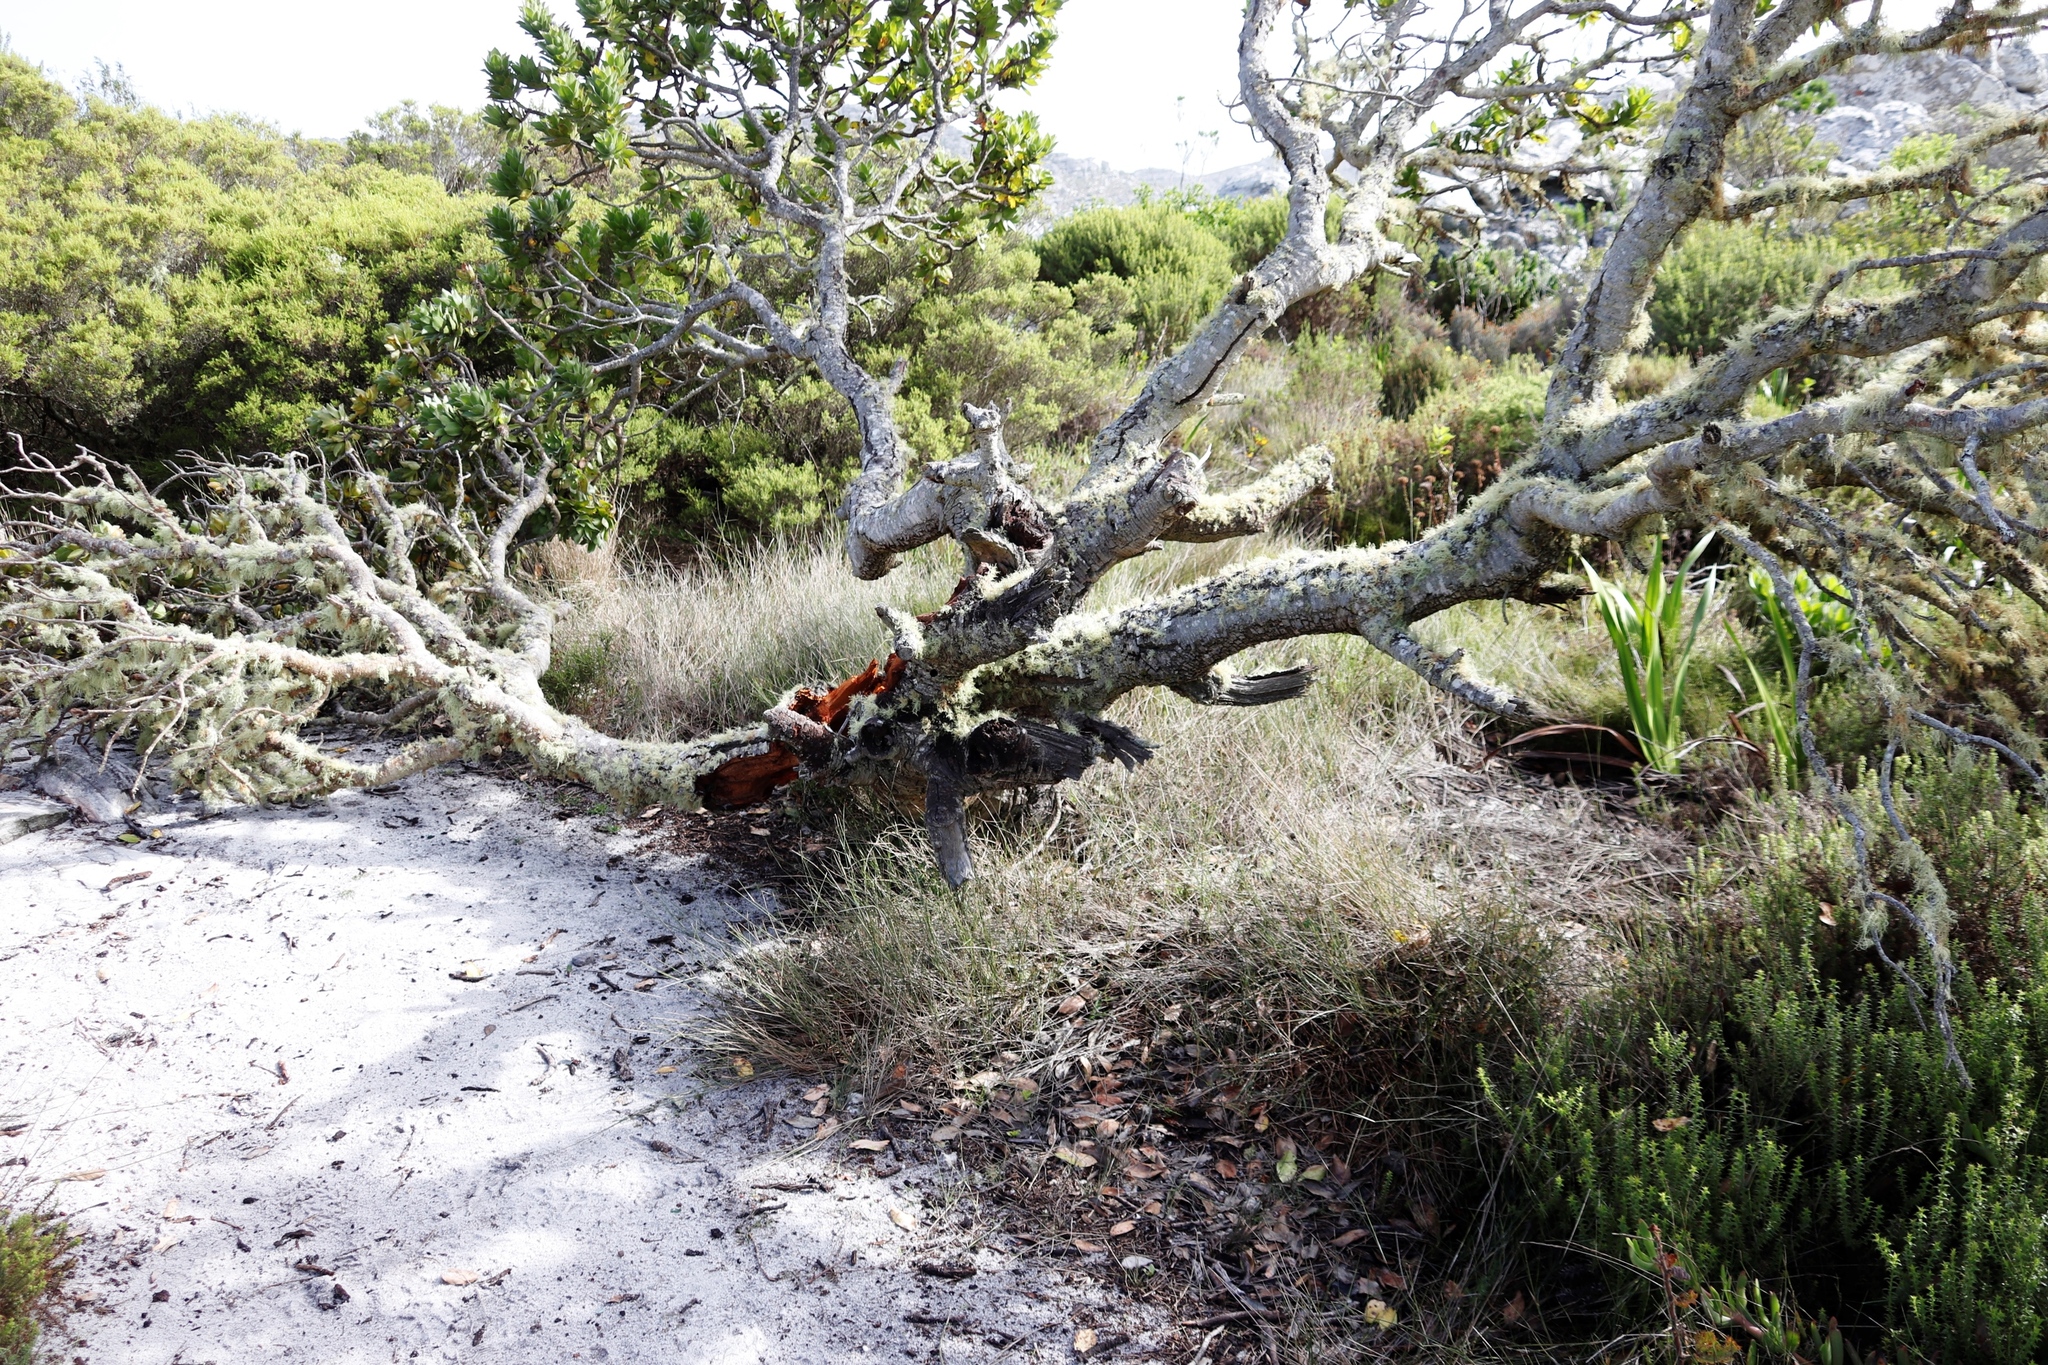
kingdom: Plantae
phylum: Tracheophyta
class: Magnoliopsida
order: Proteales
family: Proteaceae
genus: Leucospermum
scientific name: Leucospermum conocarpodendron
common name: Tree pincushion
